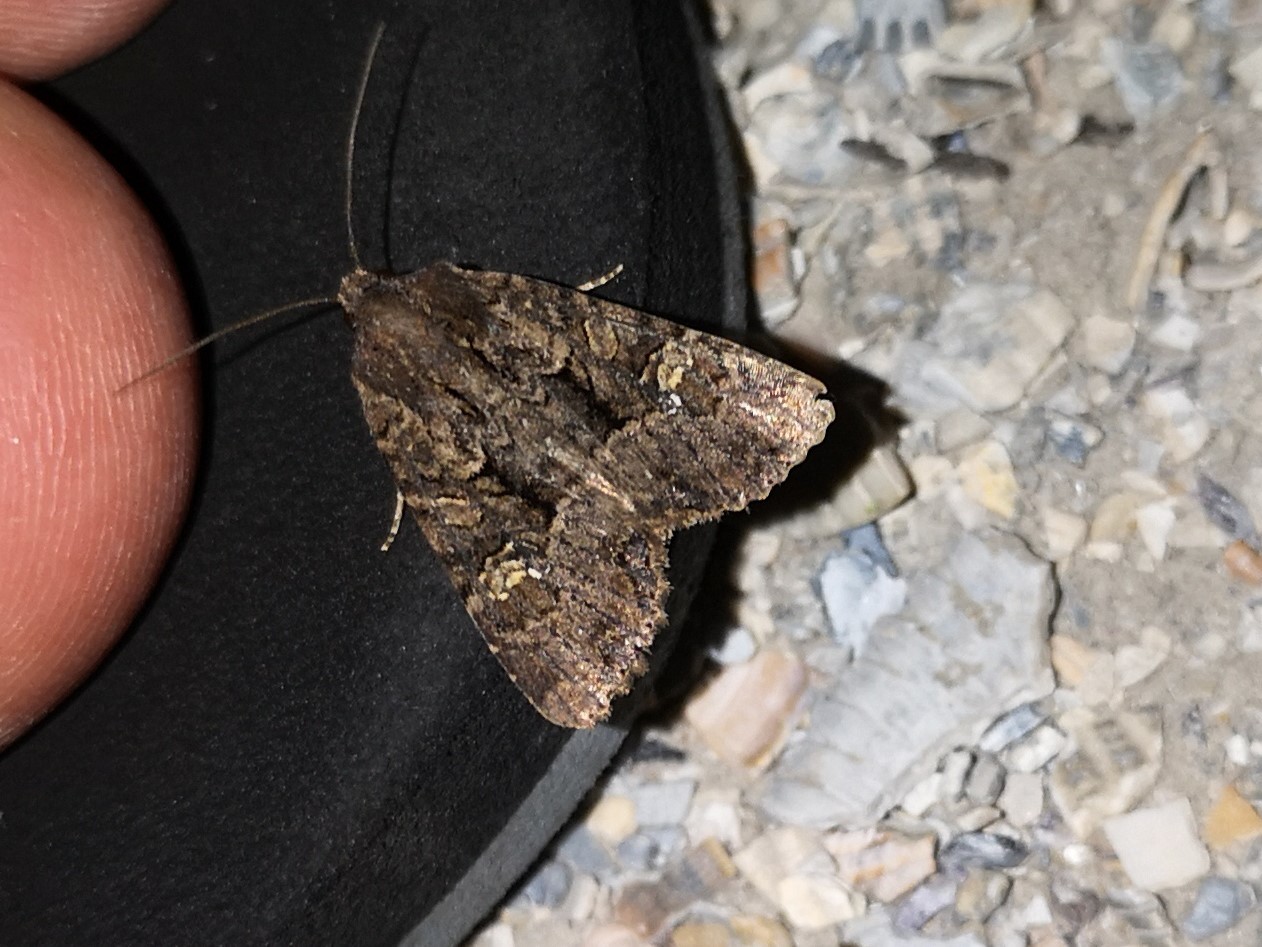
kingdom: Animalia
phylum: Arthropoda
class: Insecta
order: Lepidoptera
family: Noctuidae
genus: Mesapamea
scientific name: Mesapamea
